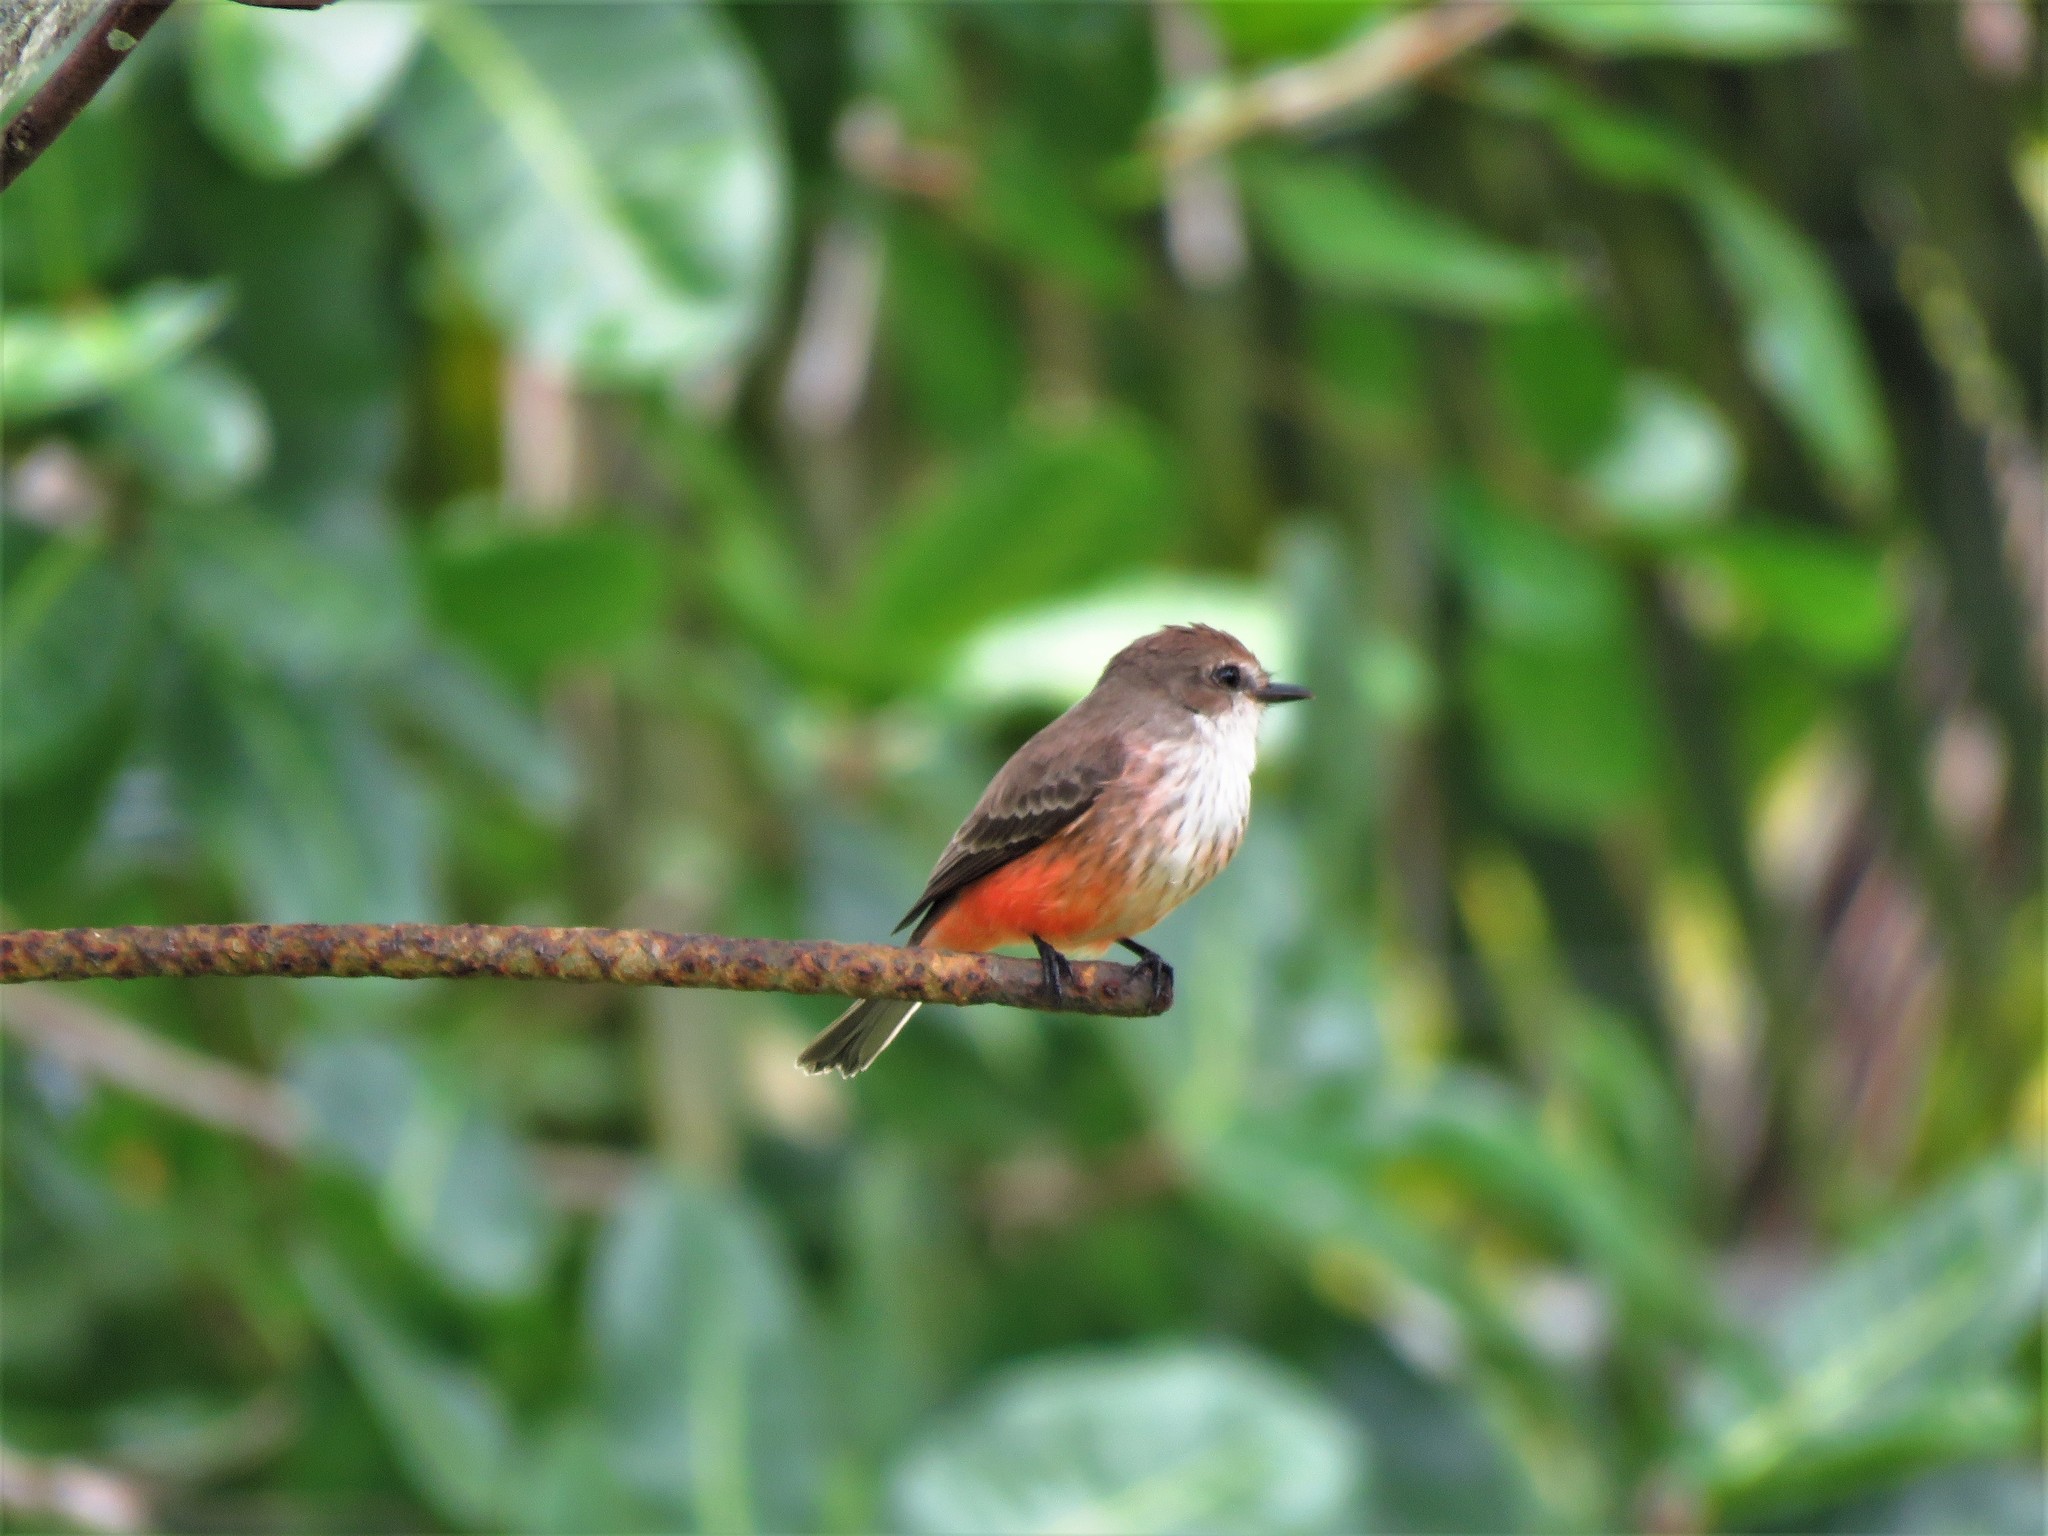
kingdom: Animalia
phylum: Chordata
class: Aves
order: Passeriformes
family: Tyrannidae
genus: Pyrocephalus
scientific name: Pyrocephalus rubinus
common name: Vermilion flycatcher
